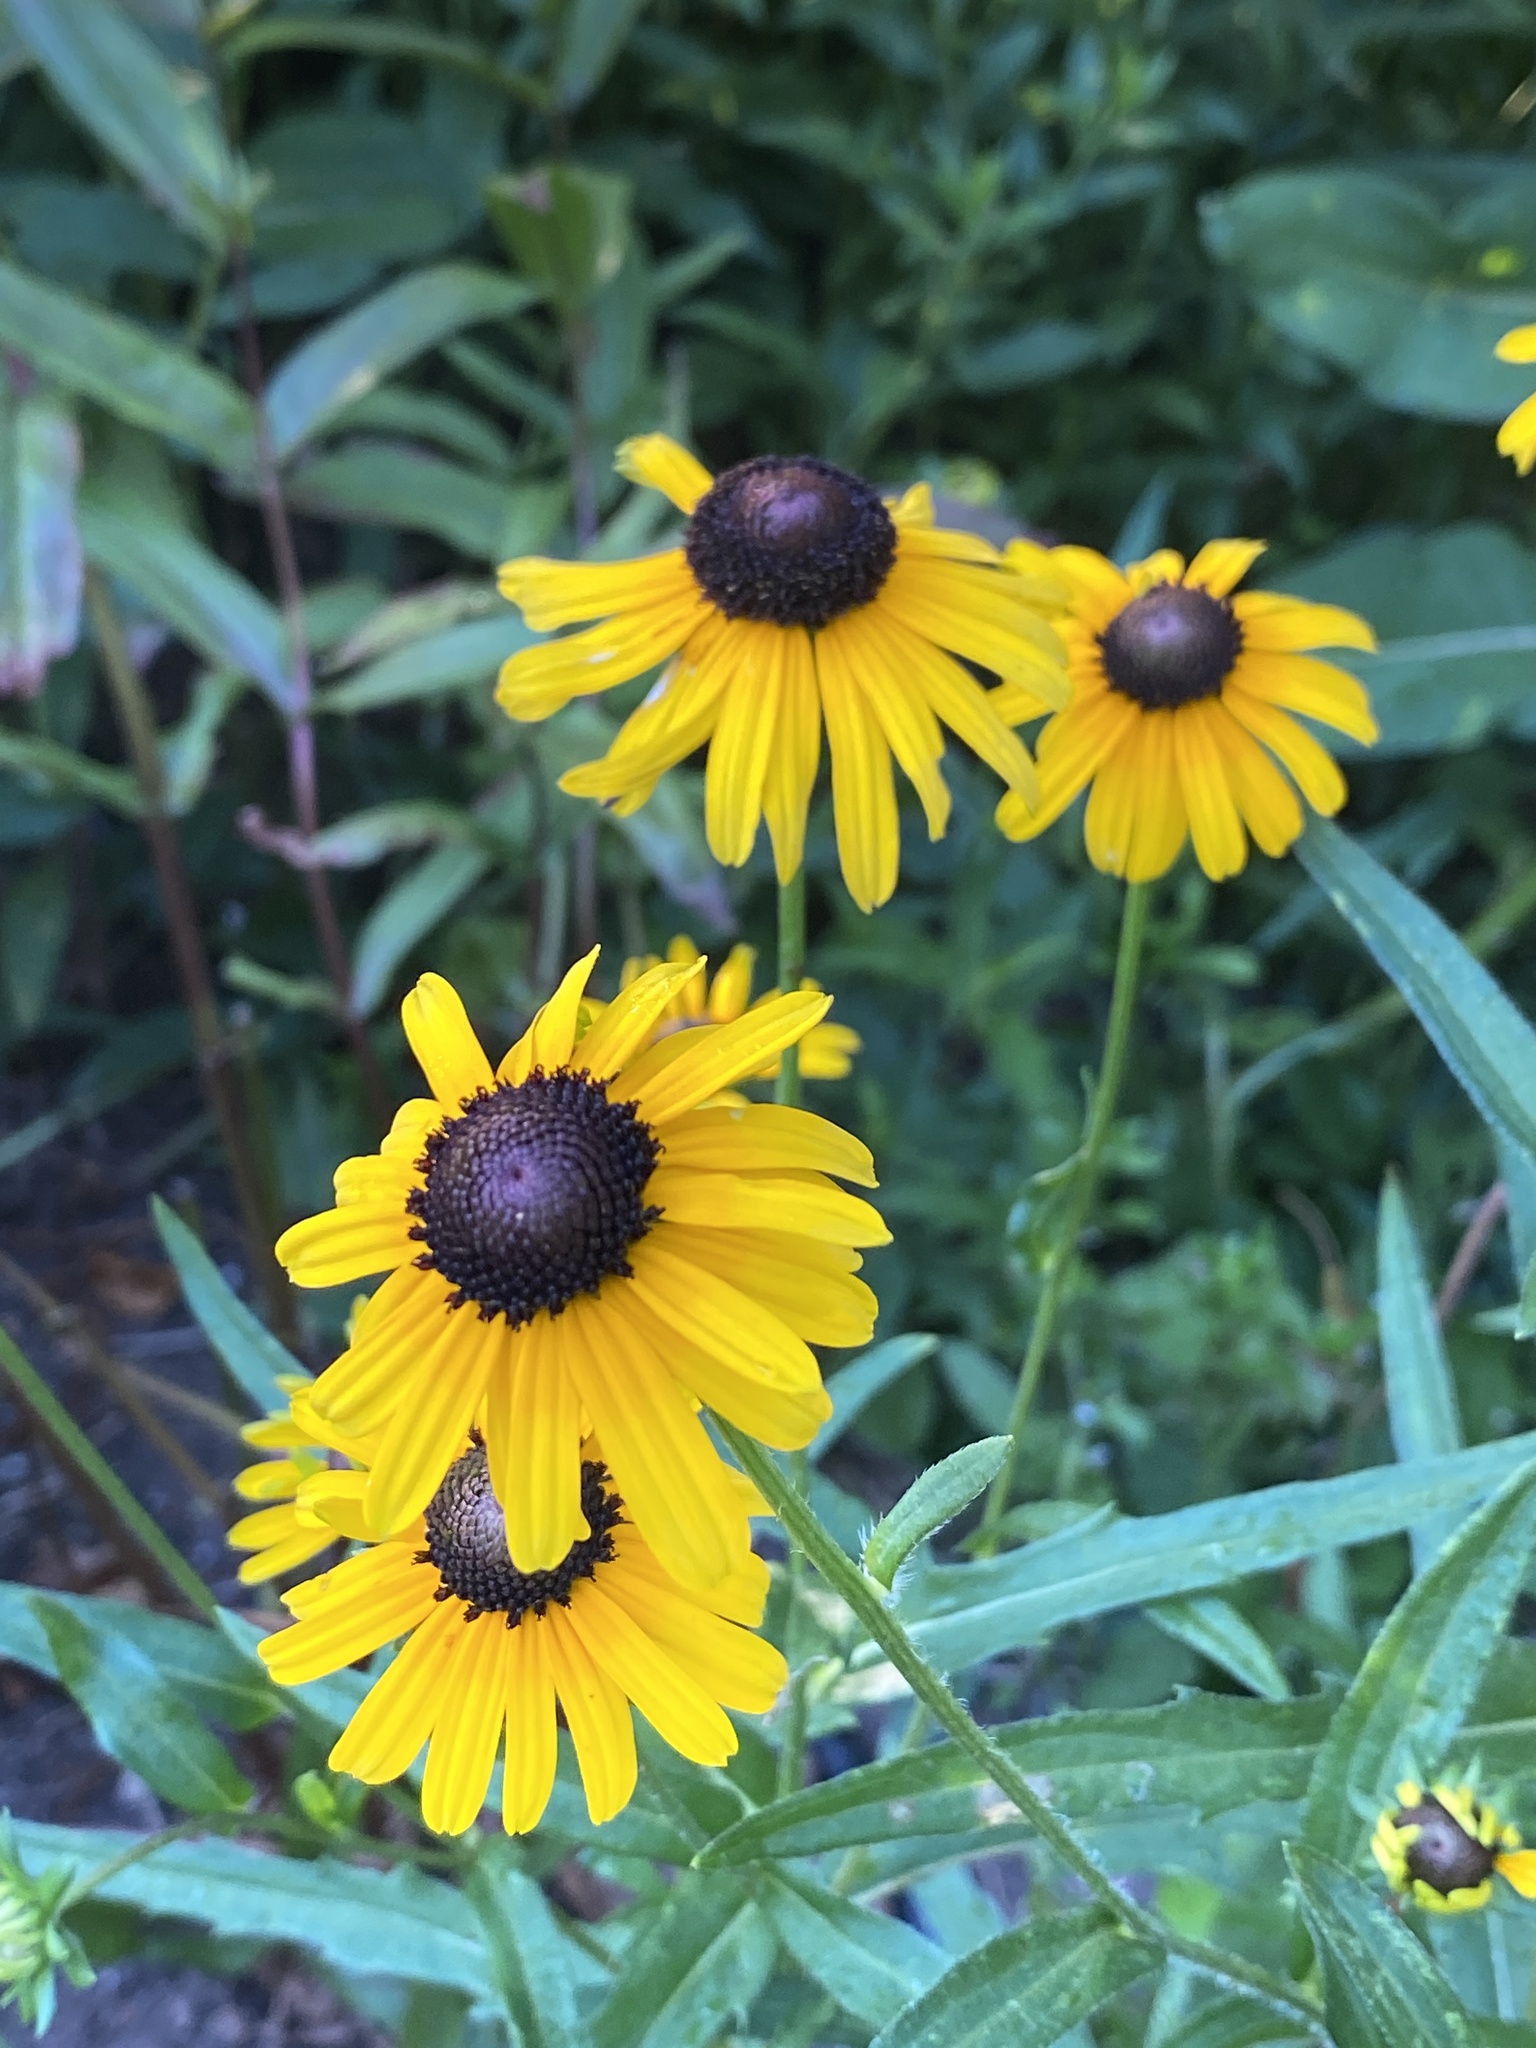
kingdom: Plantae
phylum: Tracheophyta
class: Magnoliopsida
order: Asterales
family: Asteraceae
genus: Rudbeckia
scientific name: Rudbeckia hirta
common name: Black-eyed-susan
